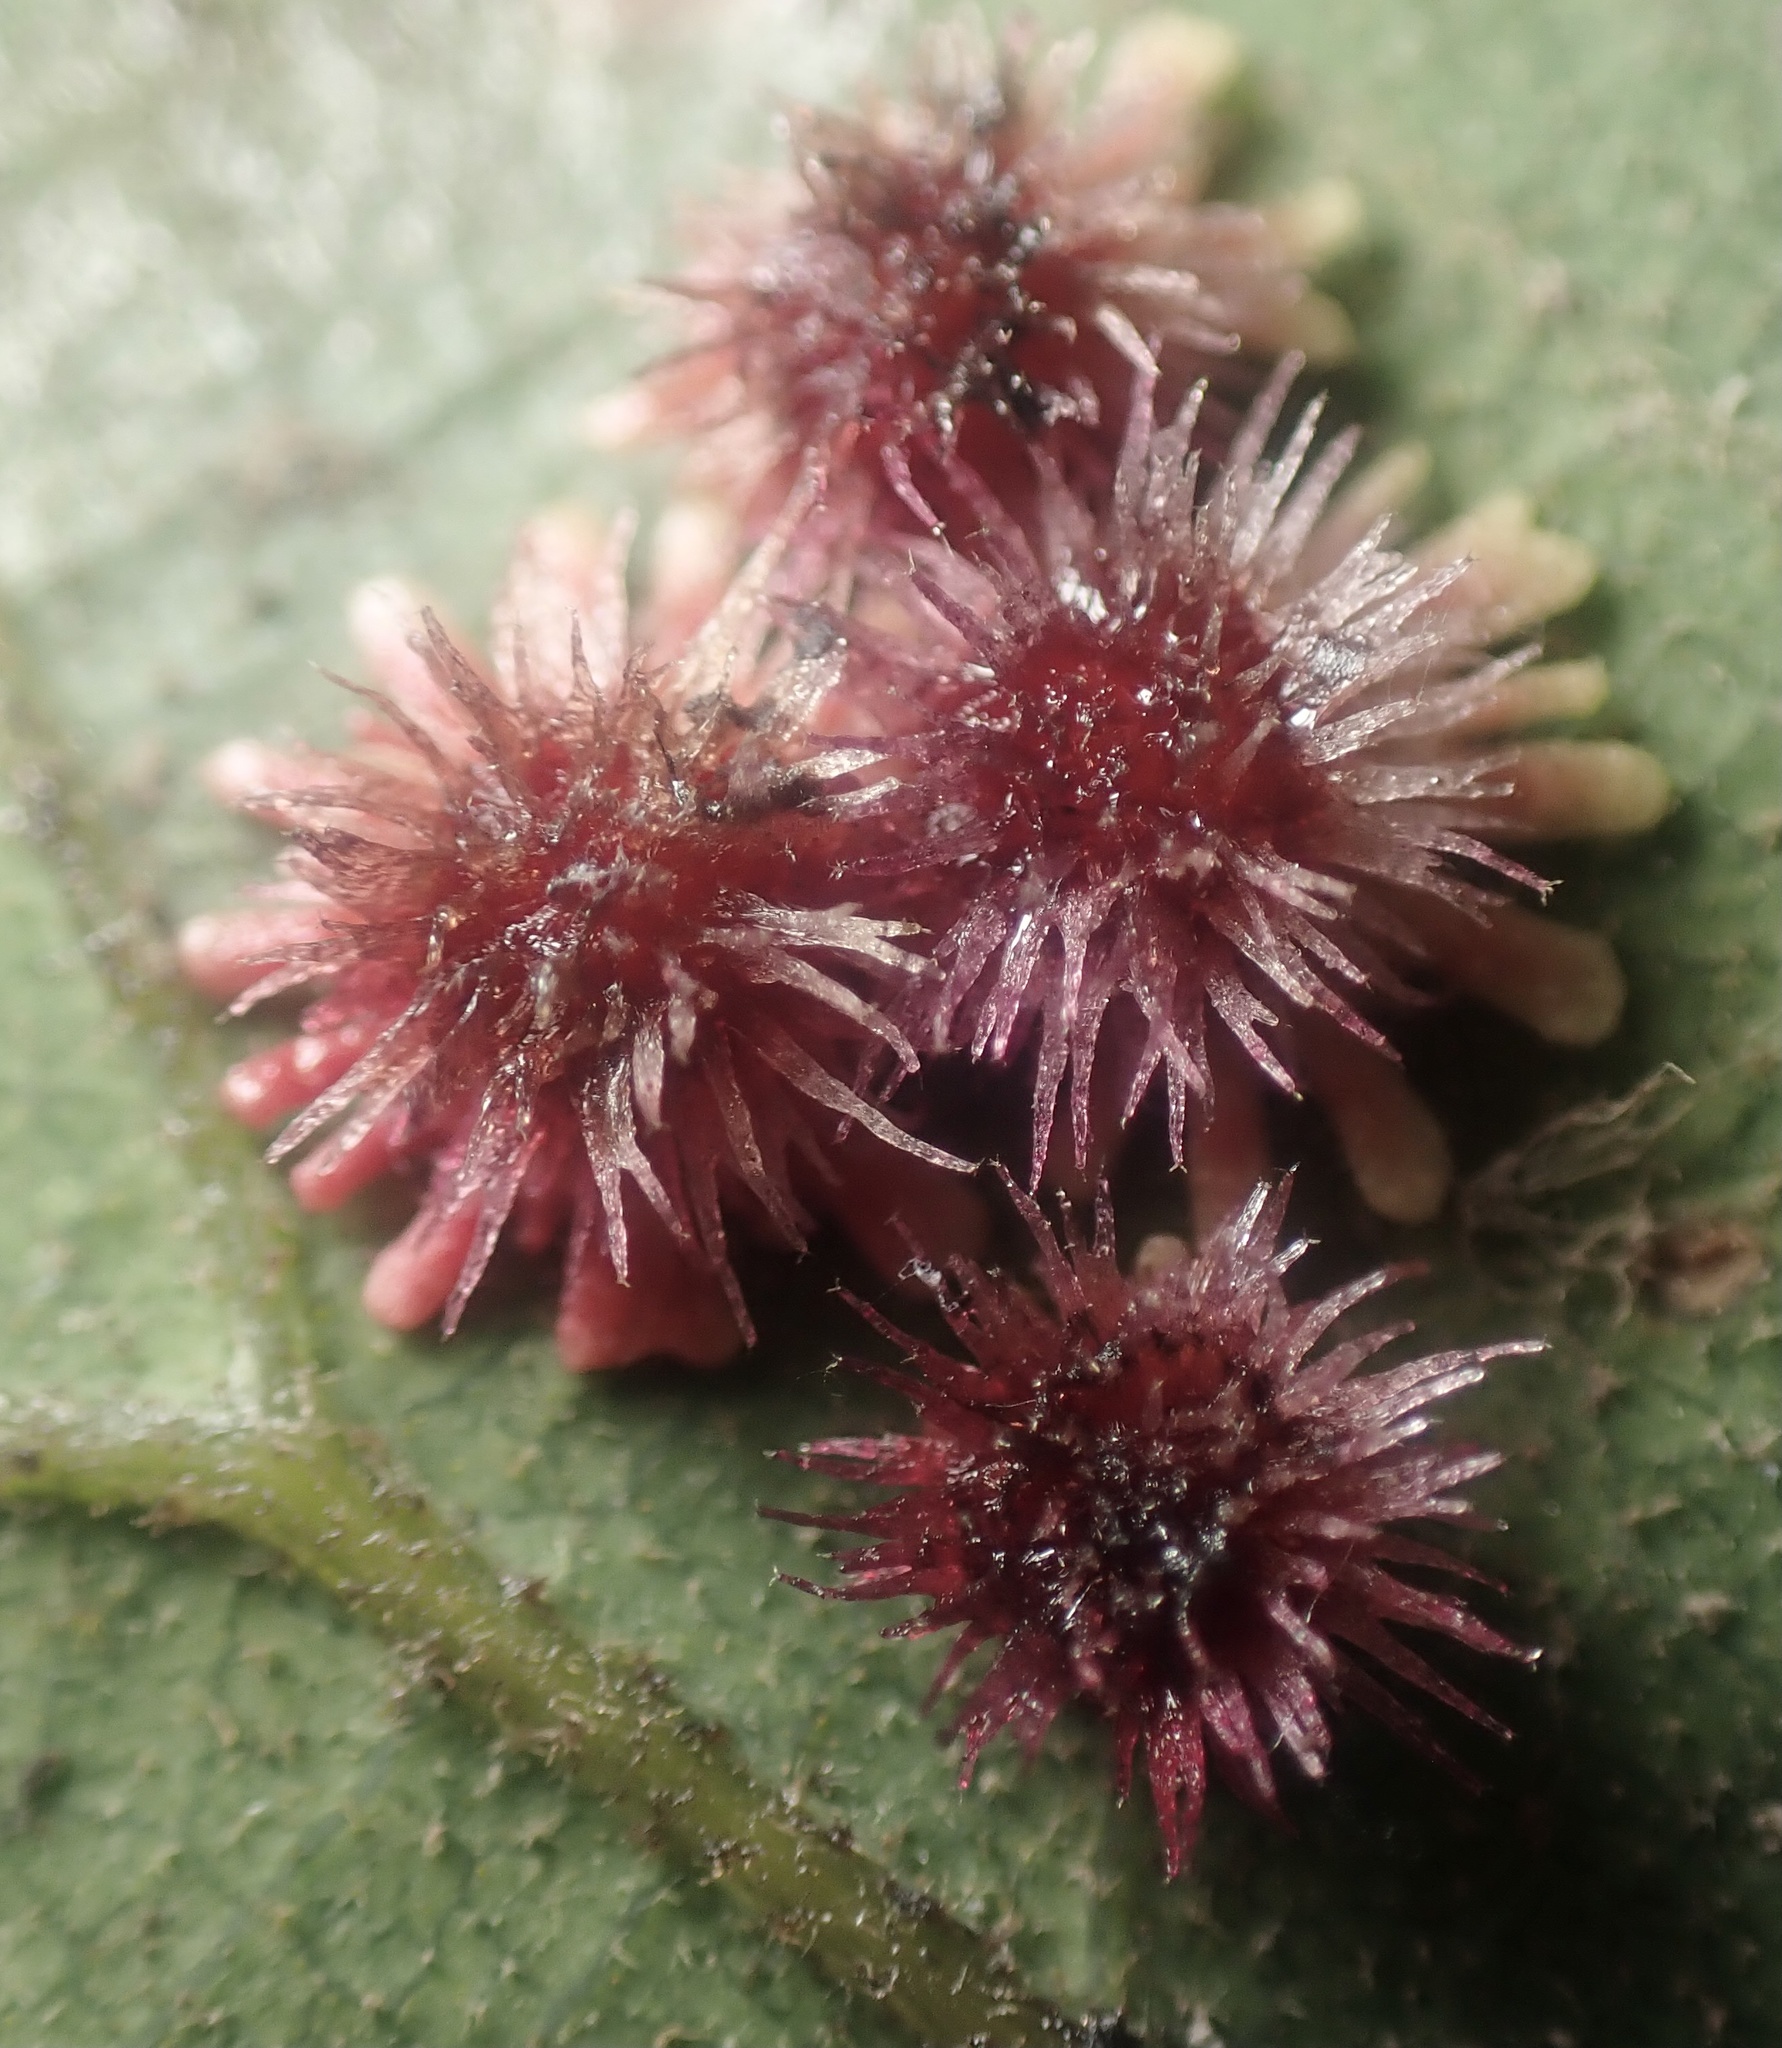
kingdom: Animalia
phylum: Arthropoda
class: Insecta
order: Hymenoptera
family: Cynipidae
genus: Andricus
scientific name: Andricus
